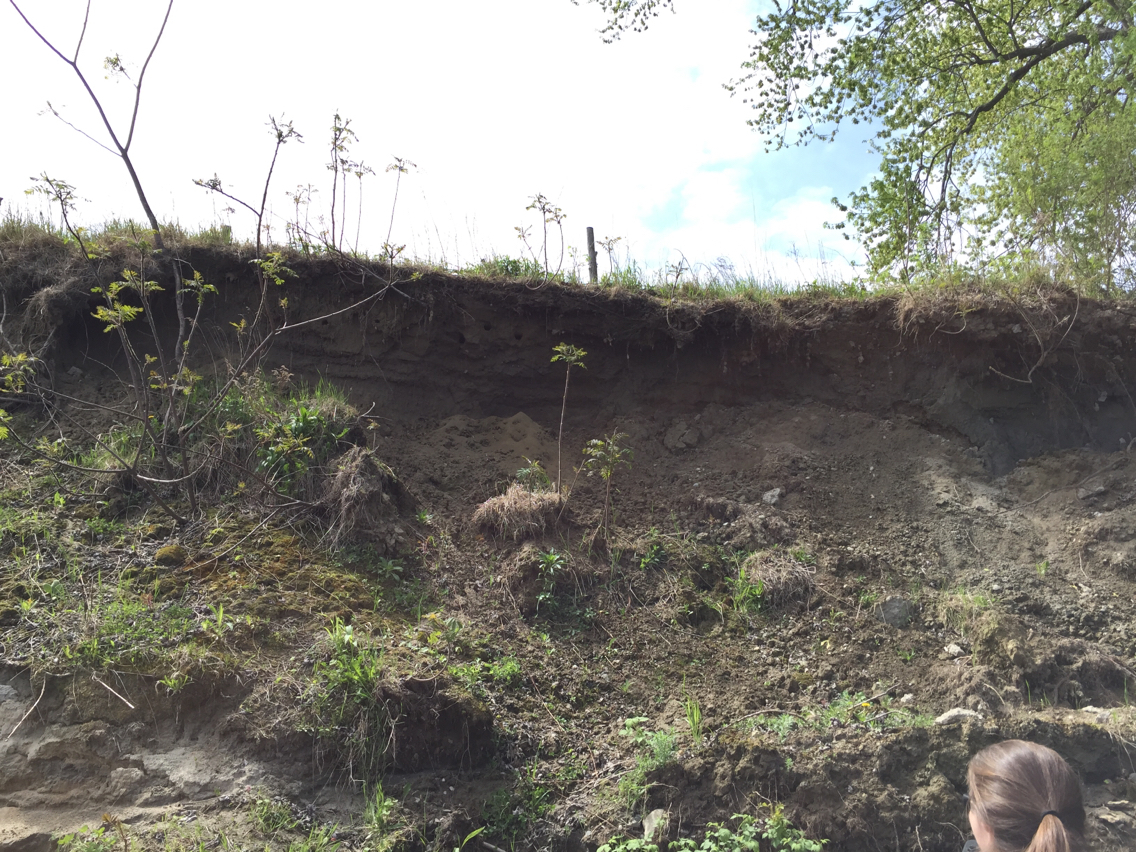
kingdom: Animalia
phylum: Chordata
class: Aves
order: Passeriformes
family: Hirundinidae
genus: Riparia
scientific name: Riparia riparia
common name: Sand martin
